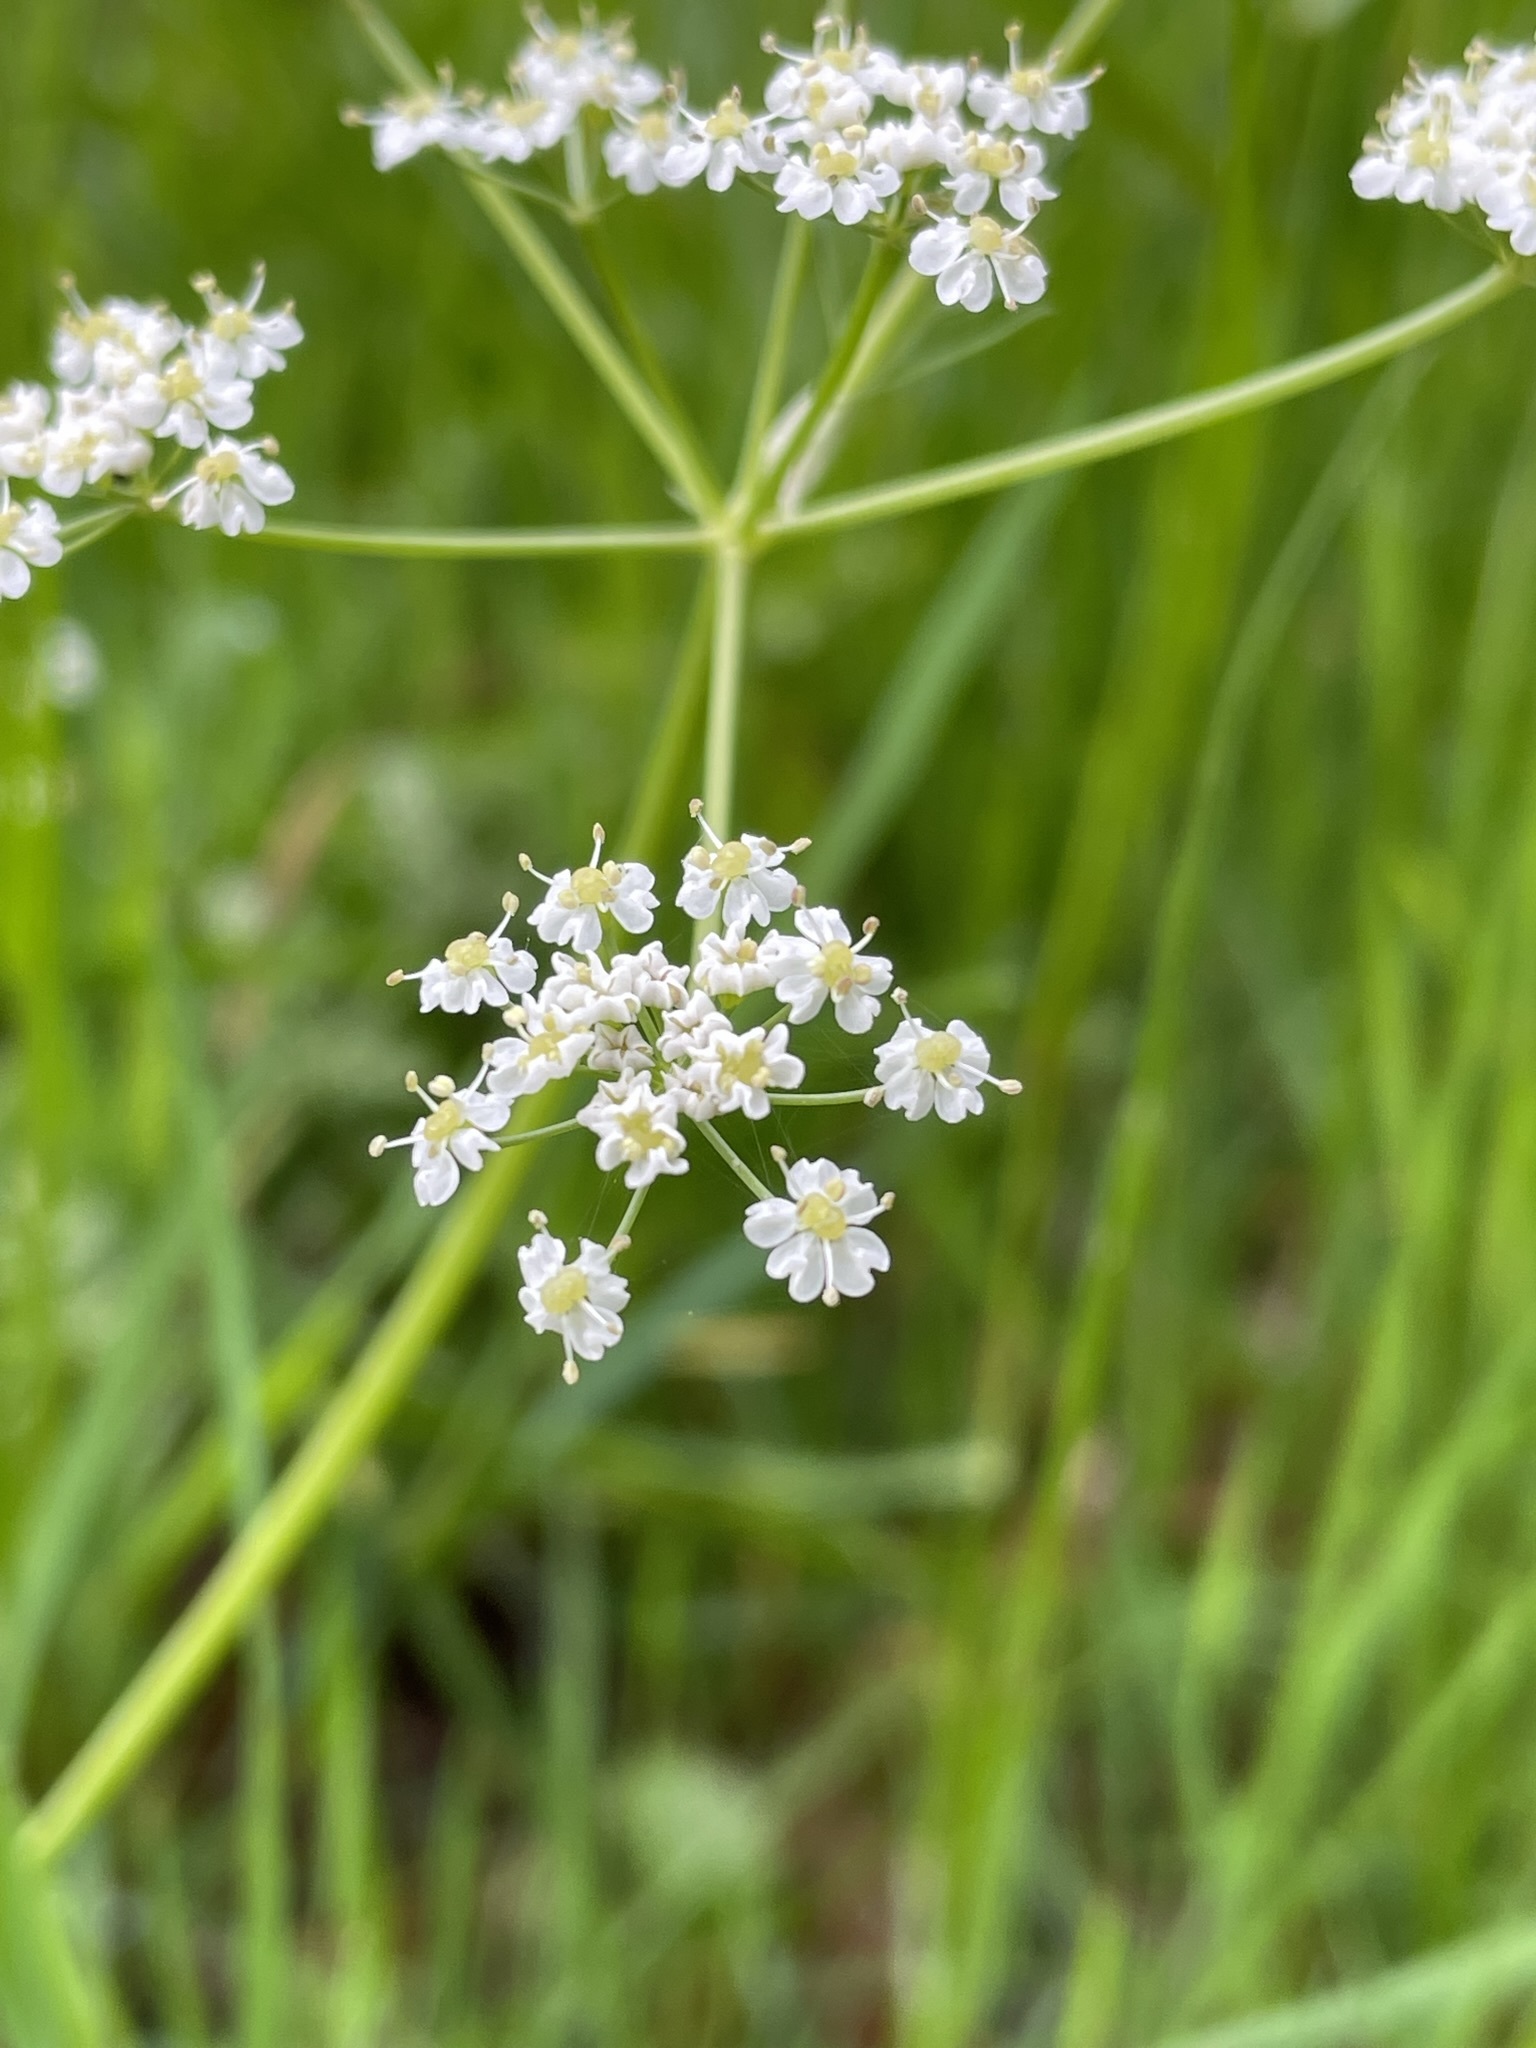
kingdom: Plantae
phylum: Tracheophyta
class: Magnoliopsida
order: Apiales
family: Apiaceae
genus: Carum
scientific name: Carum carvi
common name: Caraway
